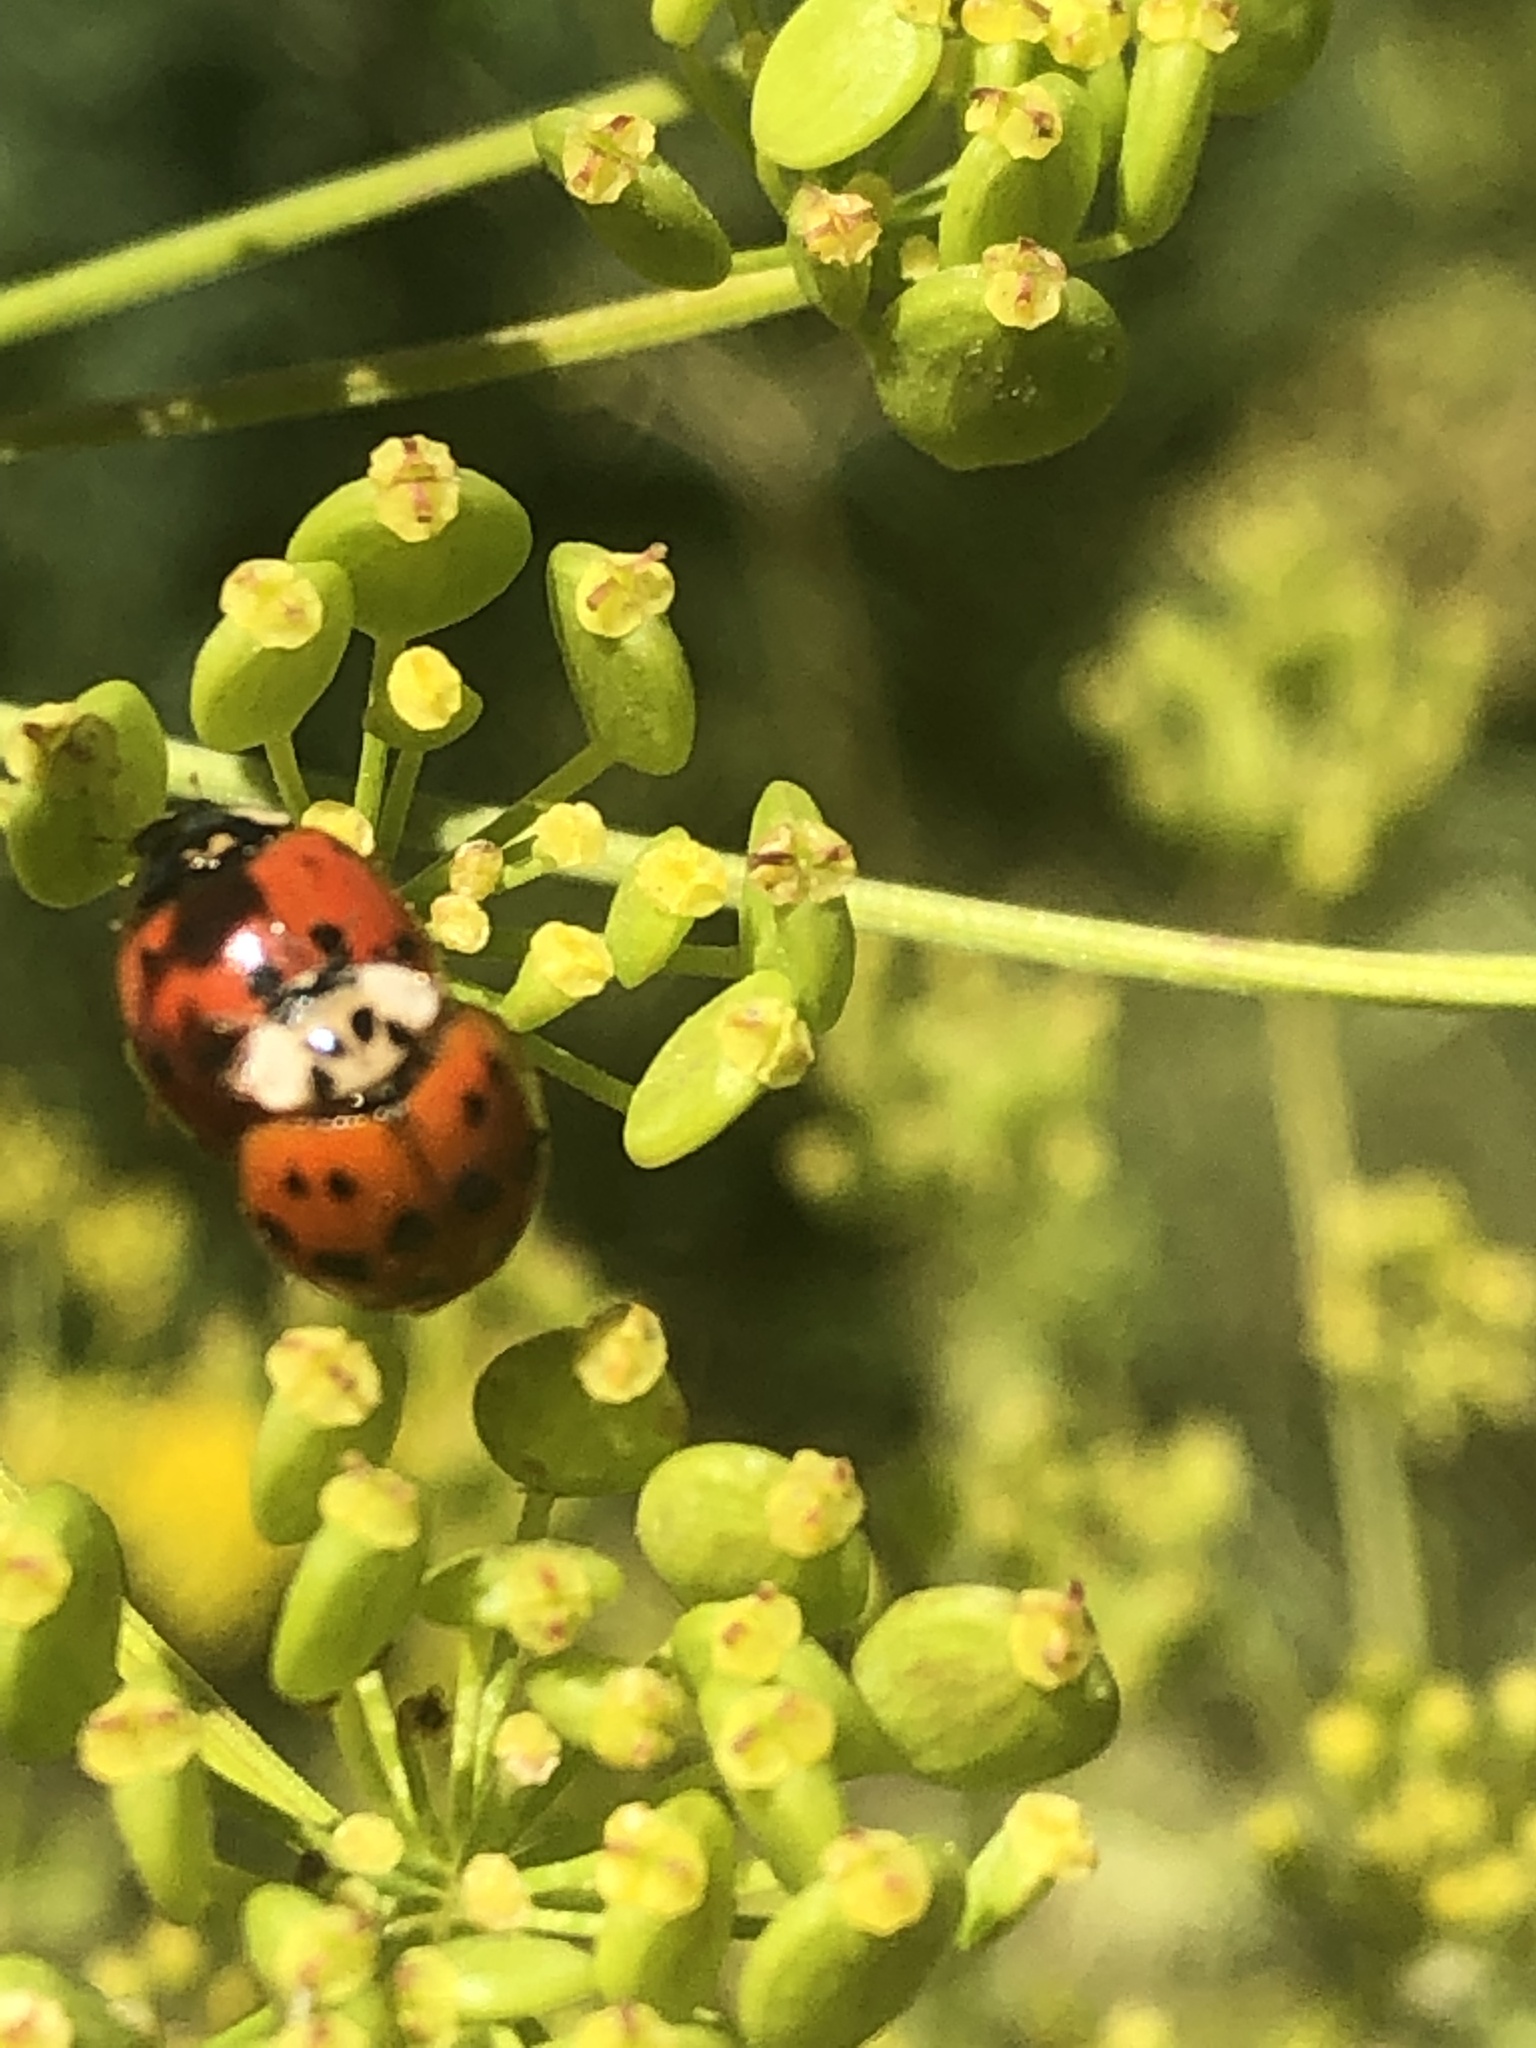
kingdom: Animalia
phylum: Arthropoda
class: Insecta
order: Coleoptera
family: Coccinellidae
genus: Harmonia
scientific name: Harmonia axyridis
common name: Harlequin ladybird
